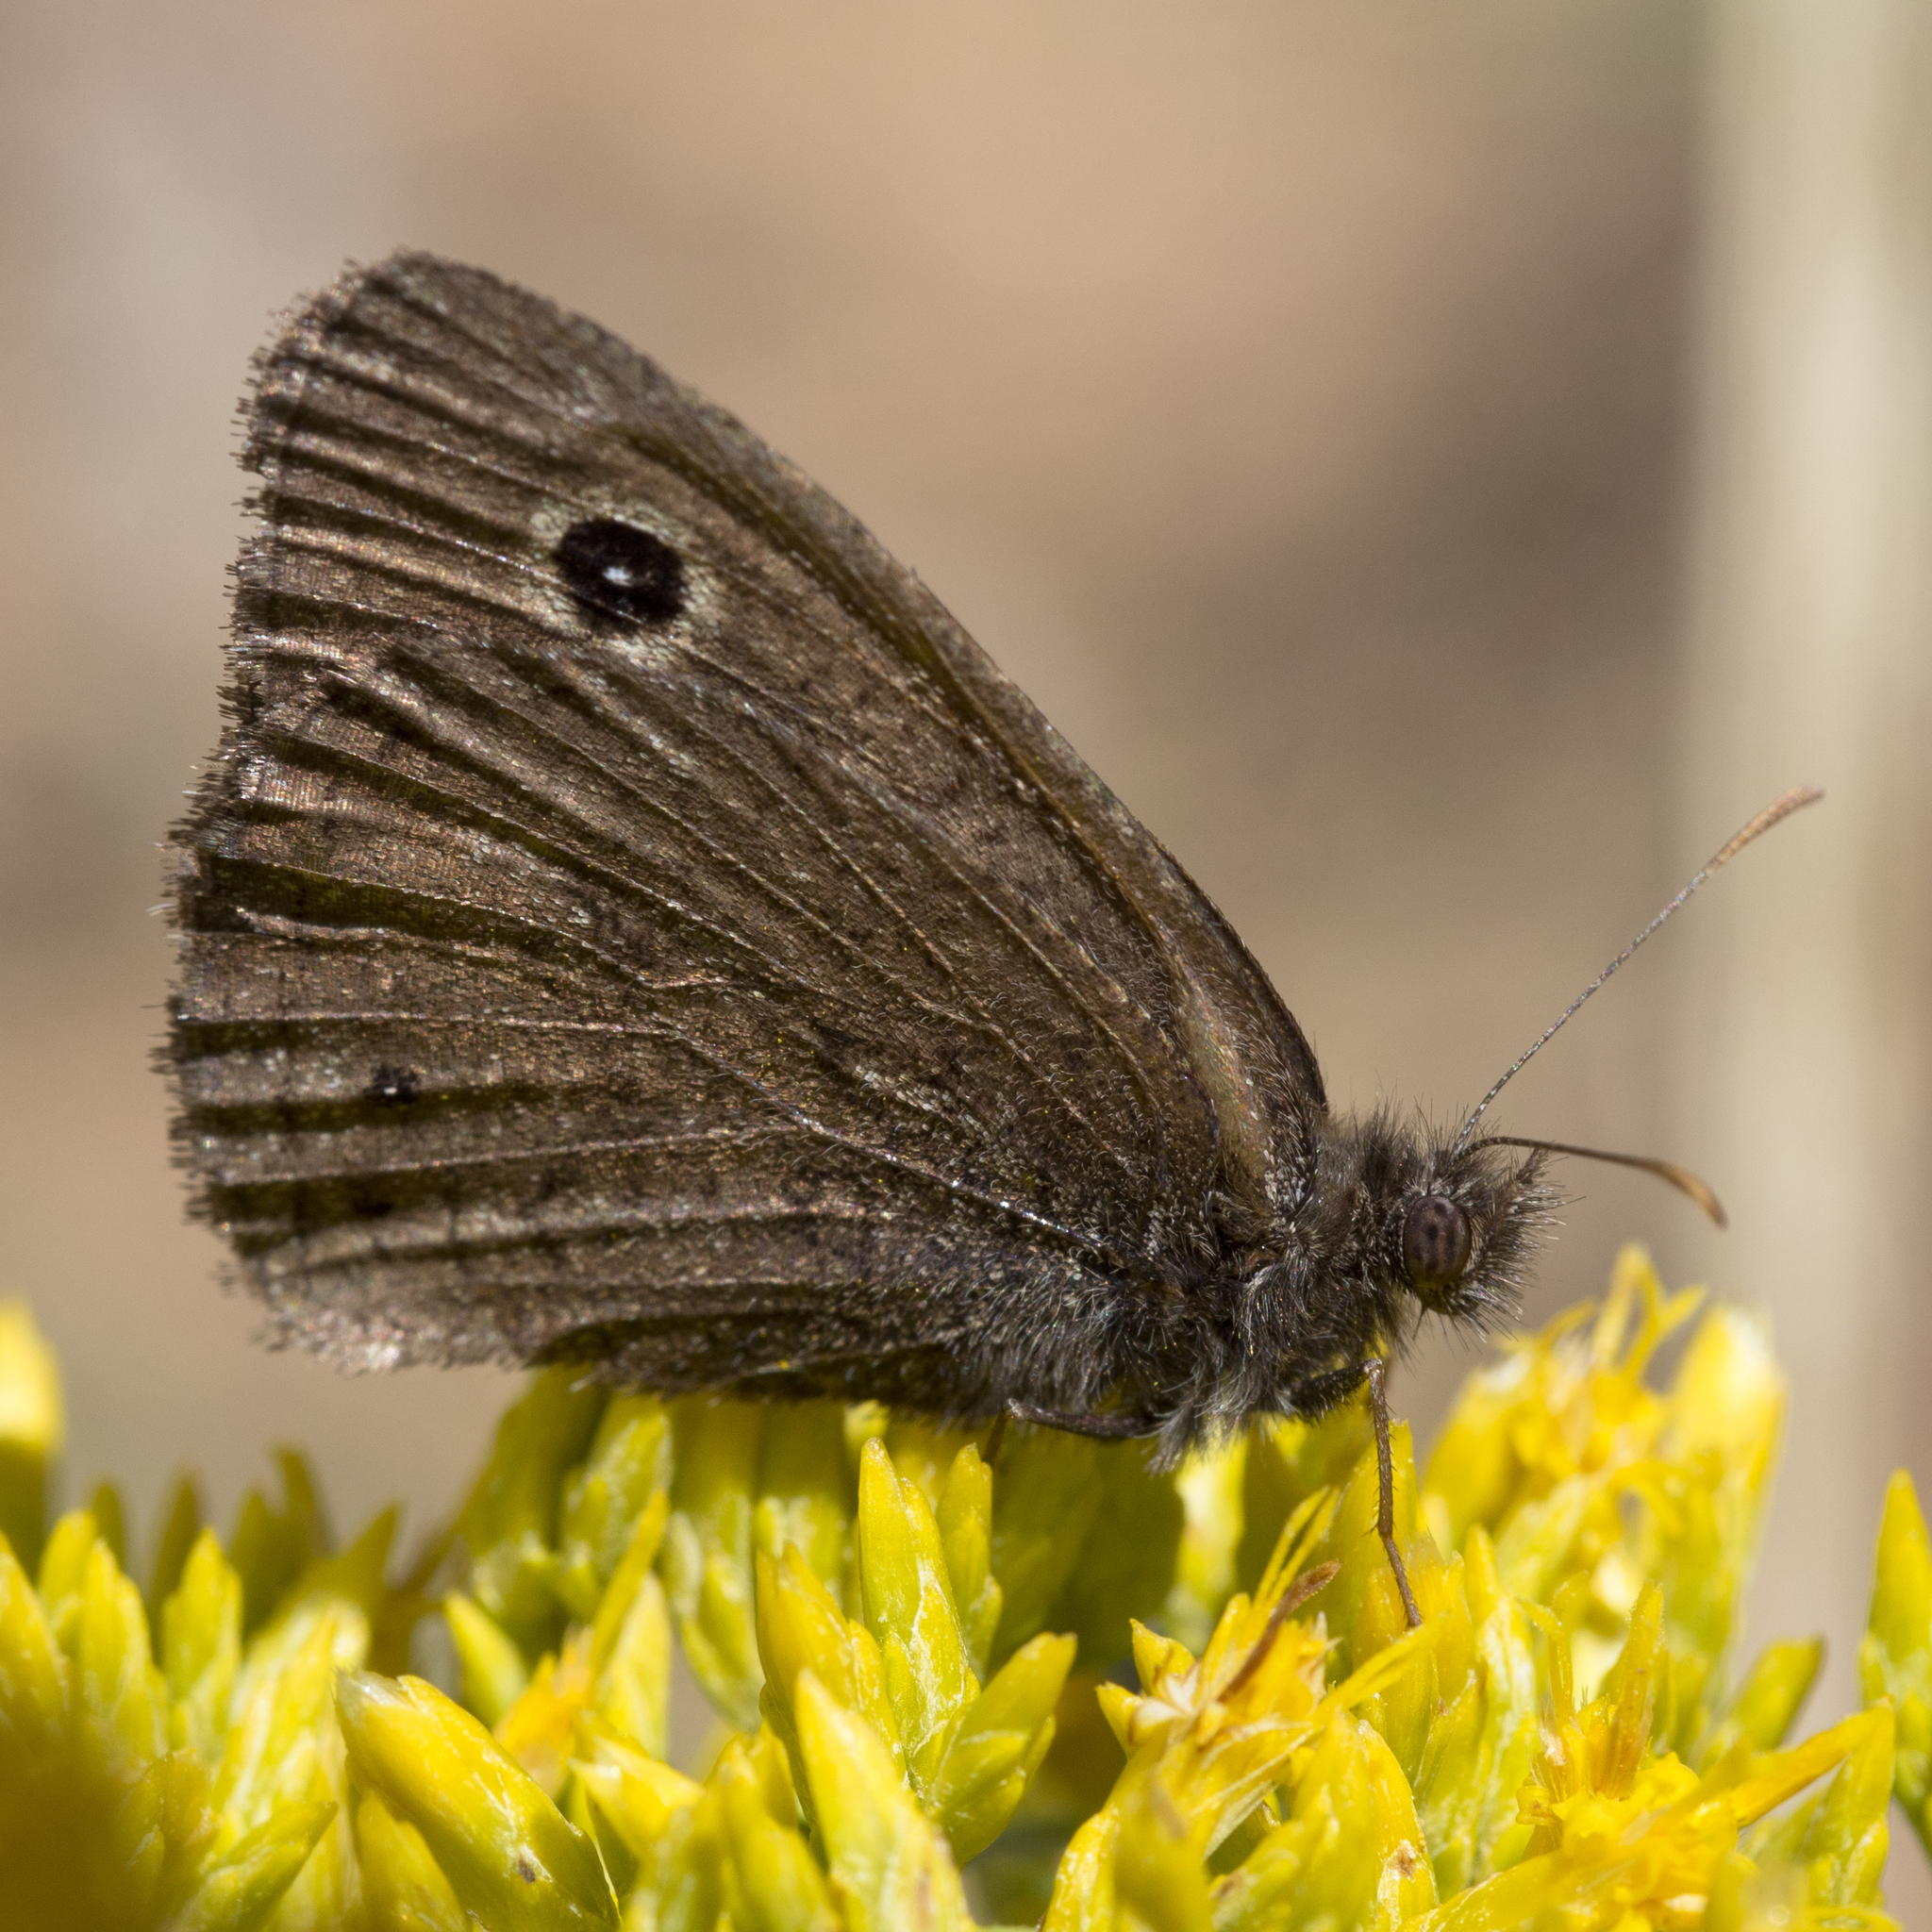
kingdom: Animalia
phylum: Arthropoda
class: Insecta
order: Lepidoptera
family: Nymphalidae
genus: Cercyonis
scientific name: Cercyonis oetus
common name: Small wood-nymph
